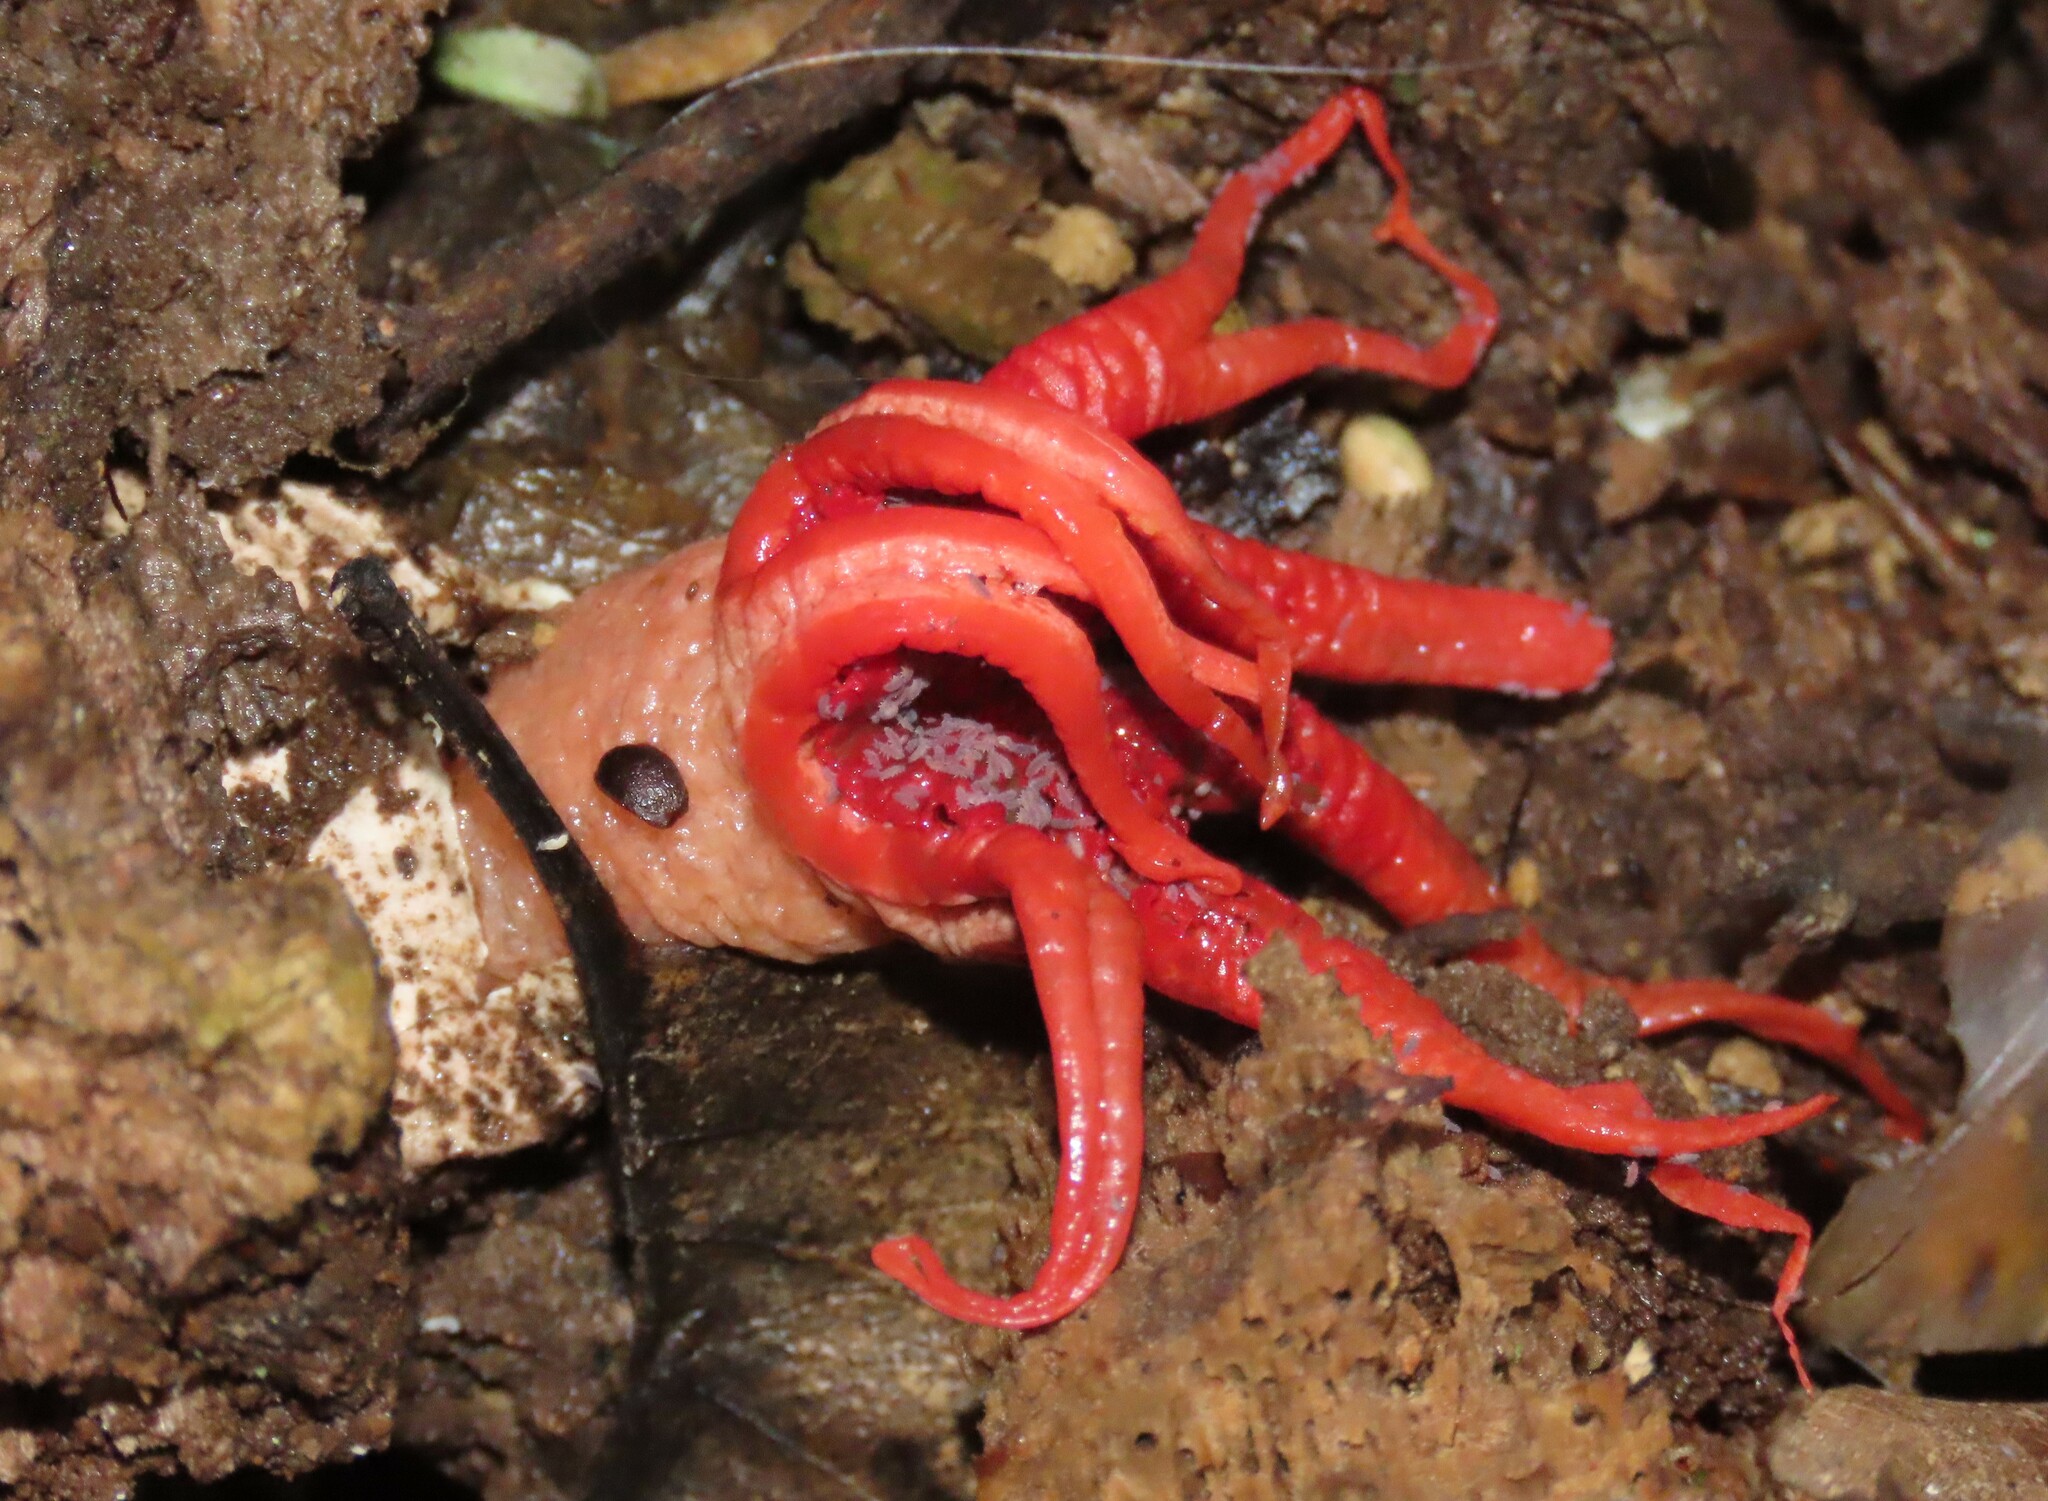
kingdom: Fungi
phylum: Basidiomycota
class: Agaricomycetes
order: Phallales
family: Phallaceae
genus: Aseroe
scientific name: Aseroe rubra
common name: Starfish fungus
